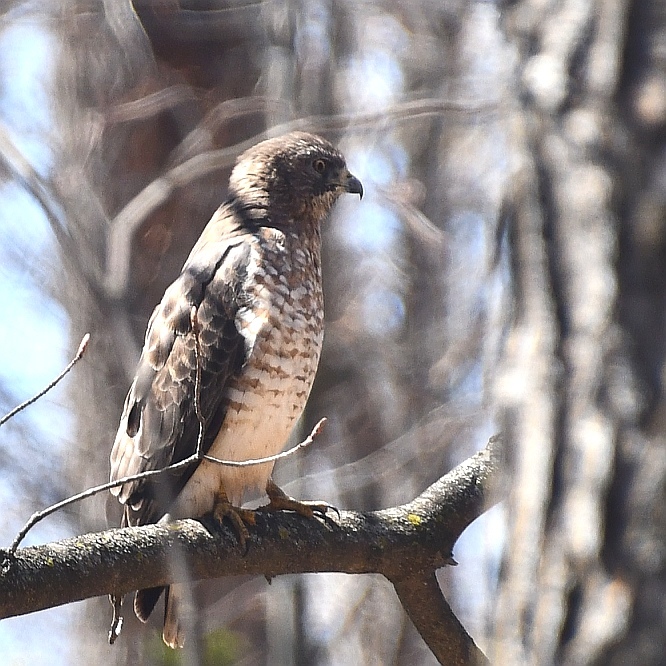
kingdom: Animalia
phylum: Chordata
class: Aves
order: Accipitriformes
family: Accipitridae
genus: Buteo
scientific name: Buteo platypterus
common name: Broad-winged hawk
